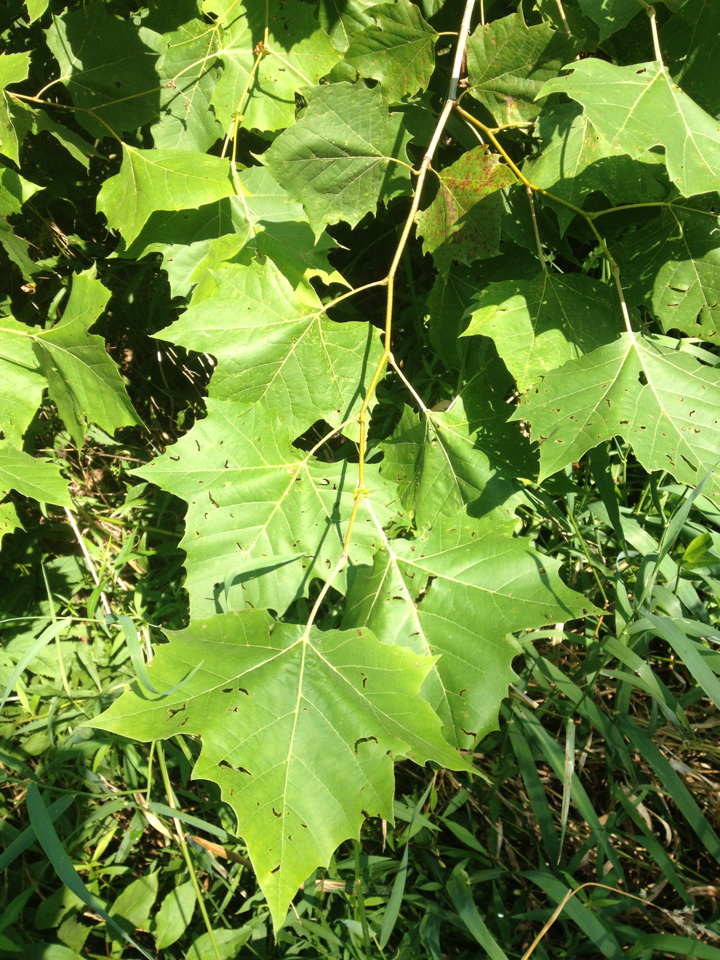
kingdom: Plantae
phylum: Tracheophyta
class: Magnoliopsida
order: Proteales
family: Platanaceae
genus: Platanus
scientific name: Platanus occidentalis
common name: American sycamore
